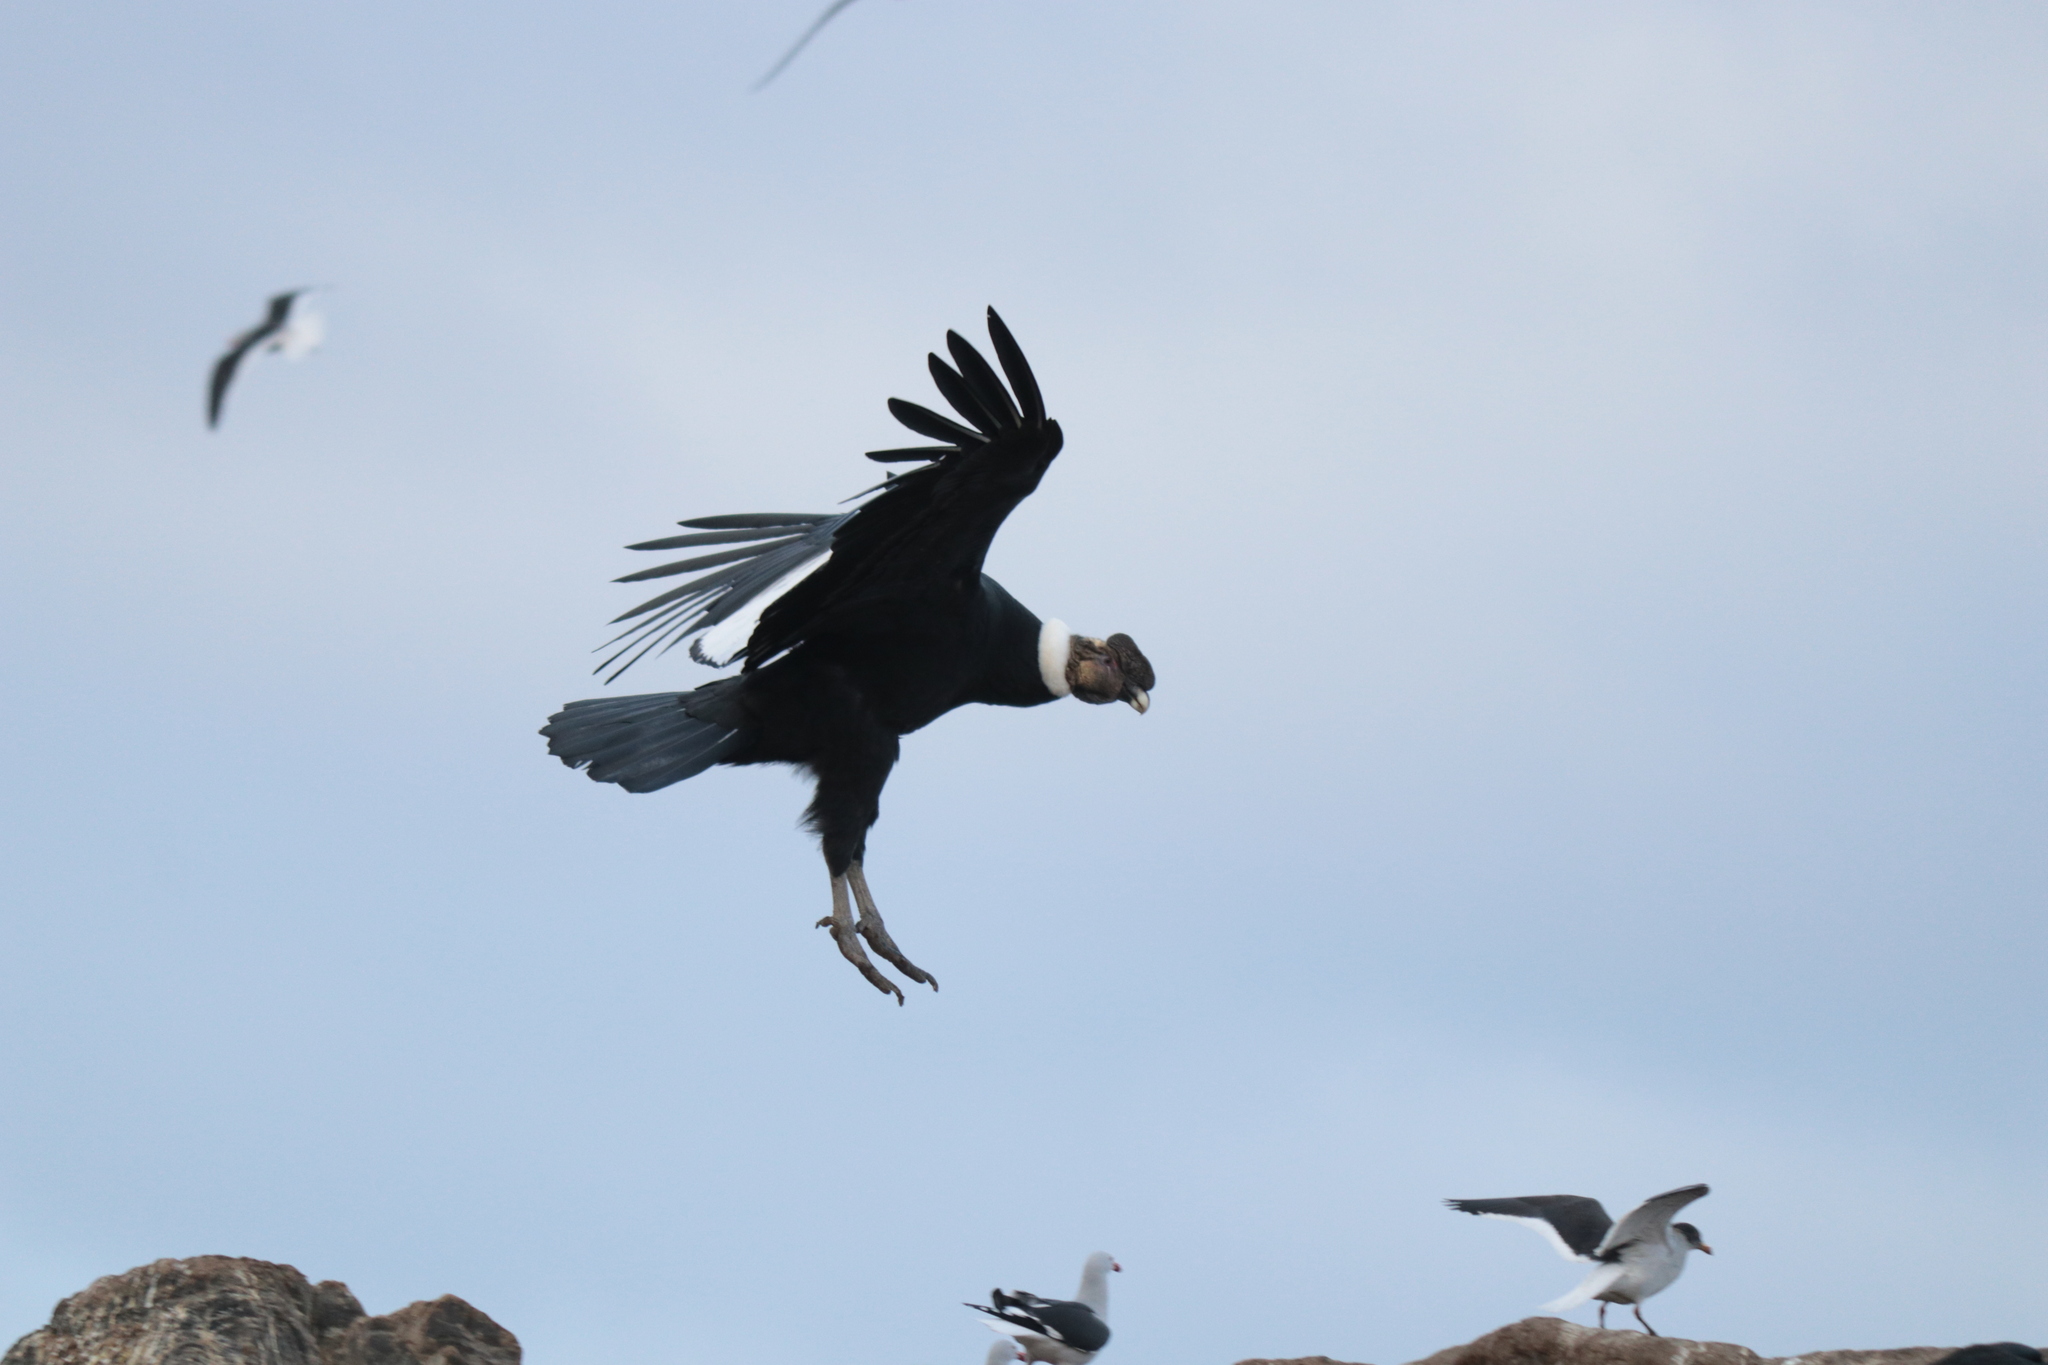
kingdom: Animalia
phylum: Chordata
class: Aves
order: Accipitriformes
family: Cathartidae
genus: Vultur
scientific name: Vultur gryphus
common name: Andean condor
